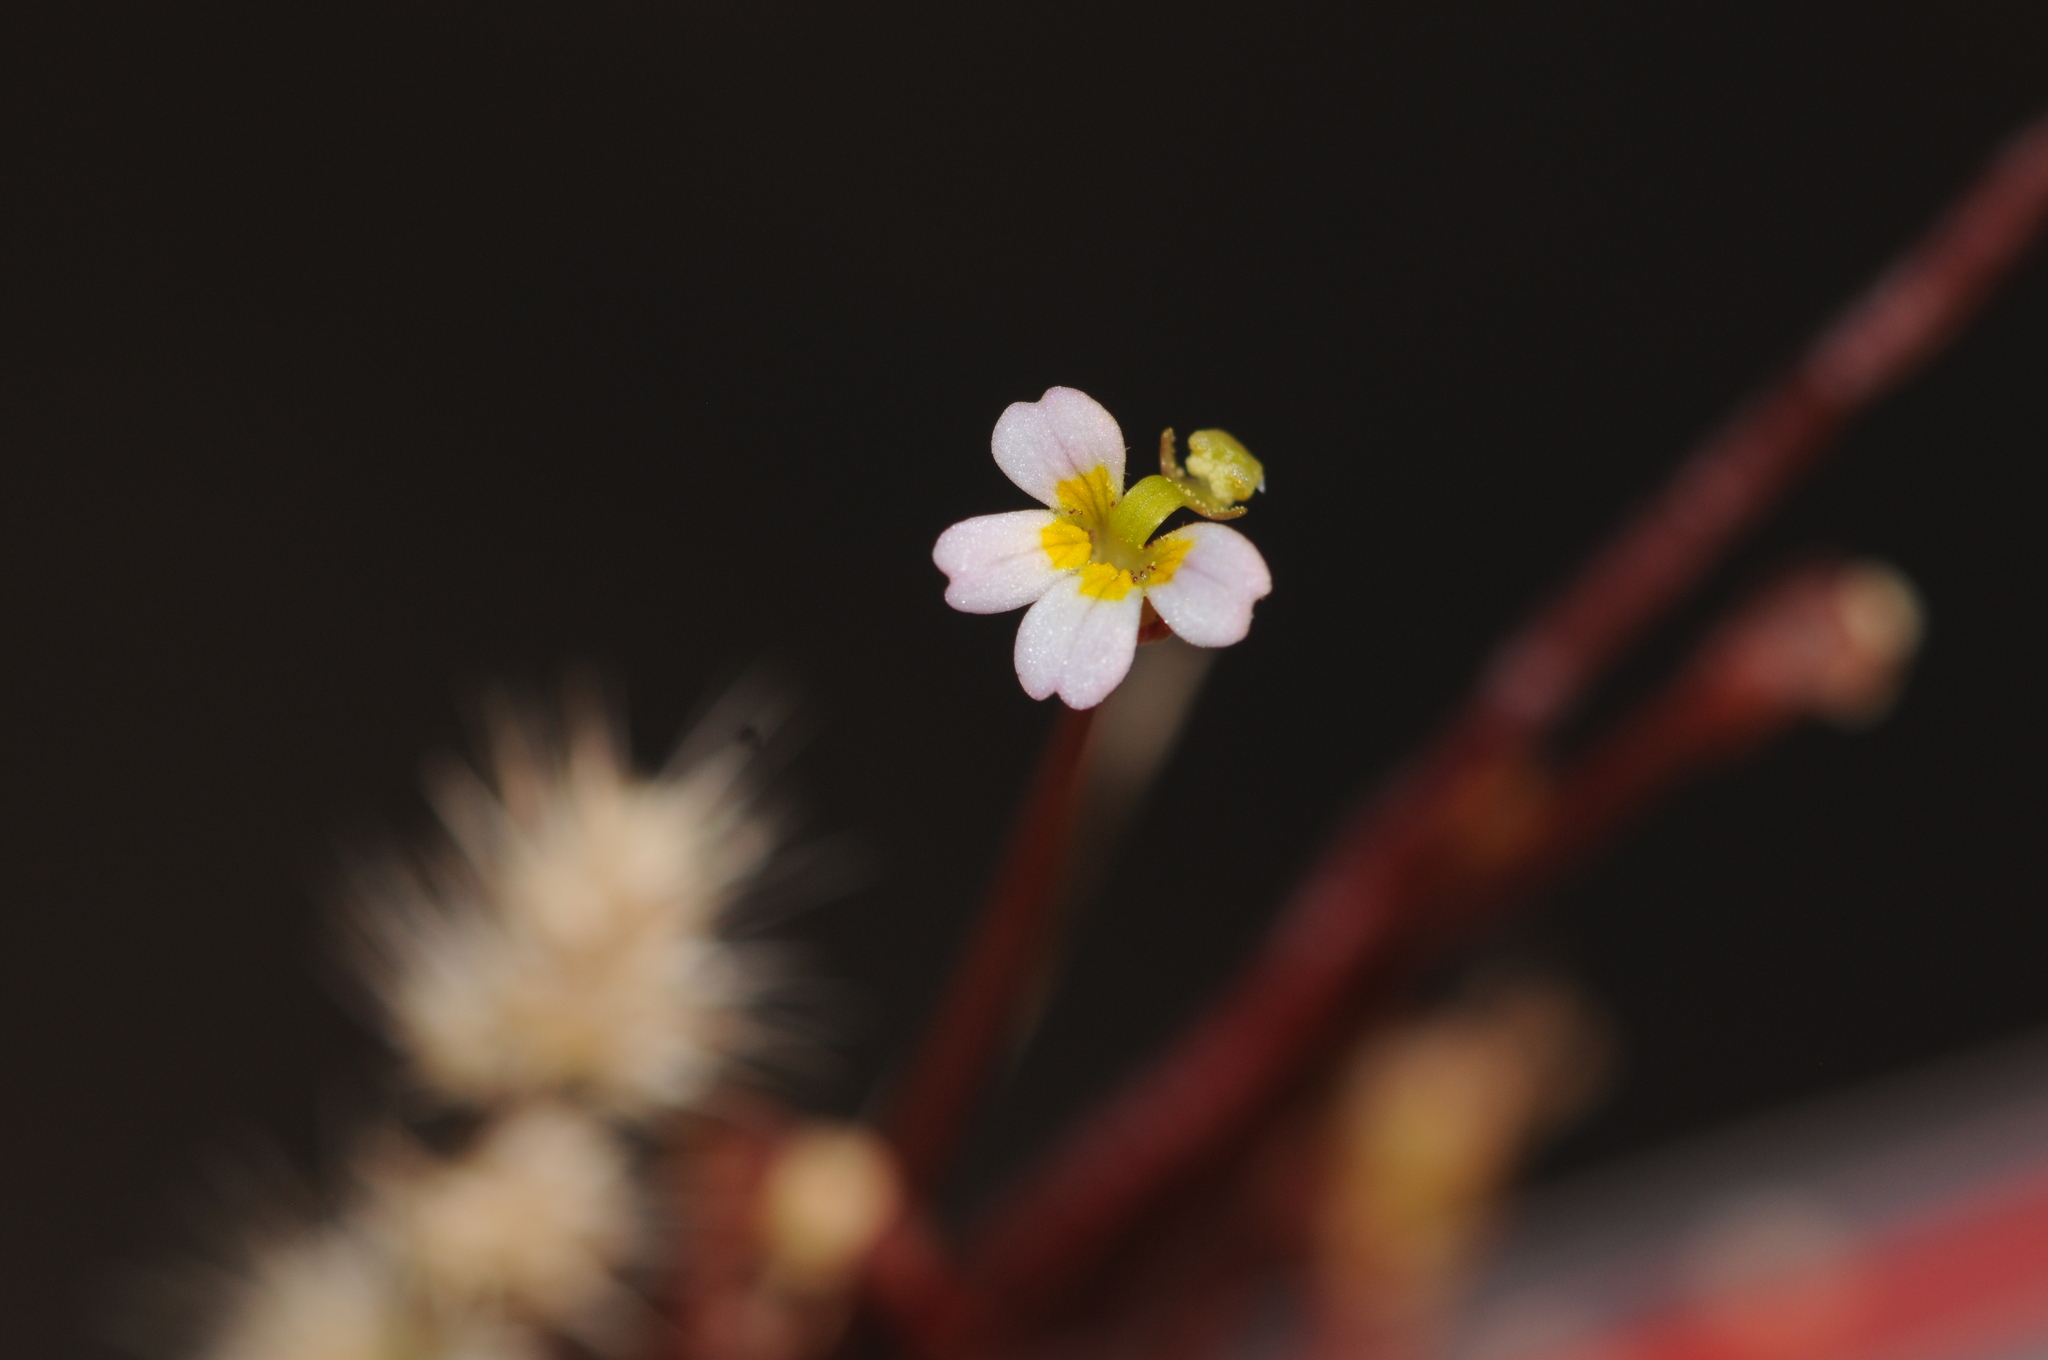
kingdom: Plantae
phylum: Tracheophyta
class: Magnoliopsida
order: Asterales
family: Stylidiaceae
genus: Stylidium
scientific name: Stylidium rotundifolium
